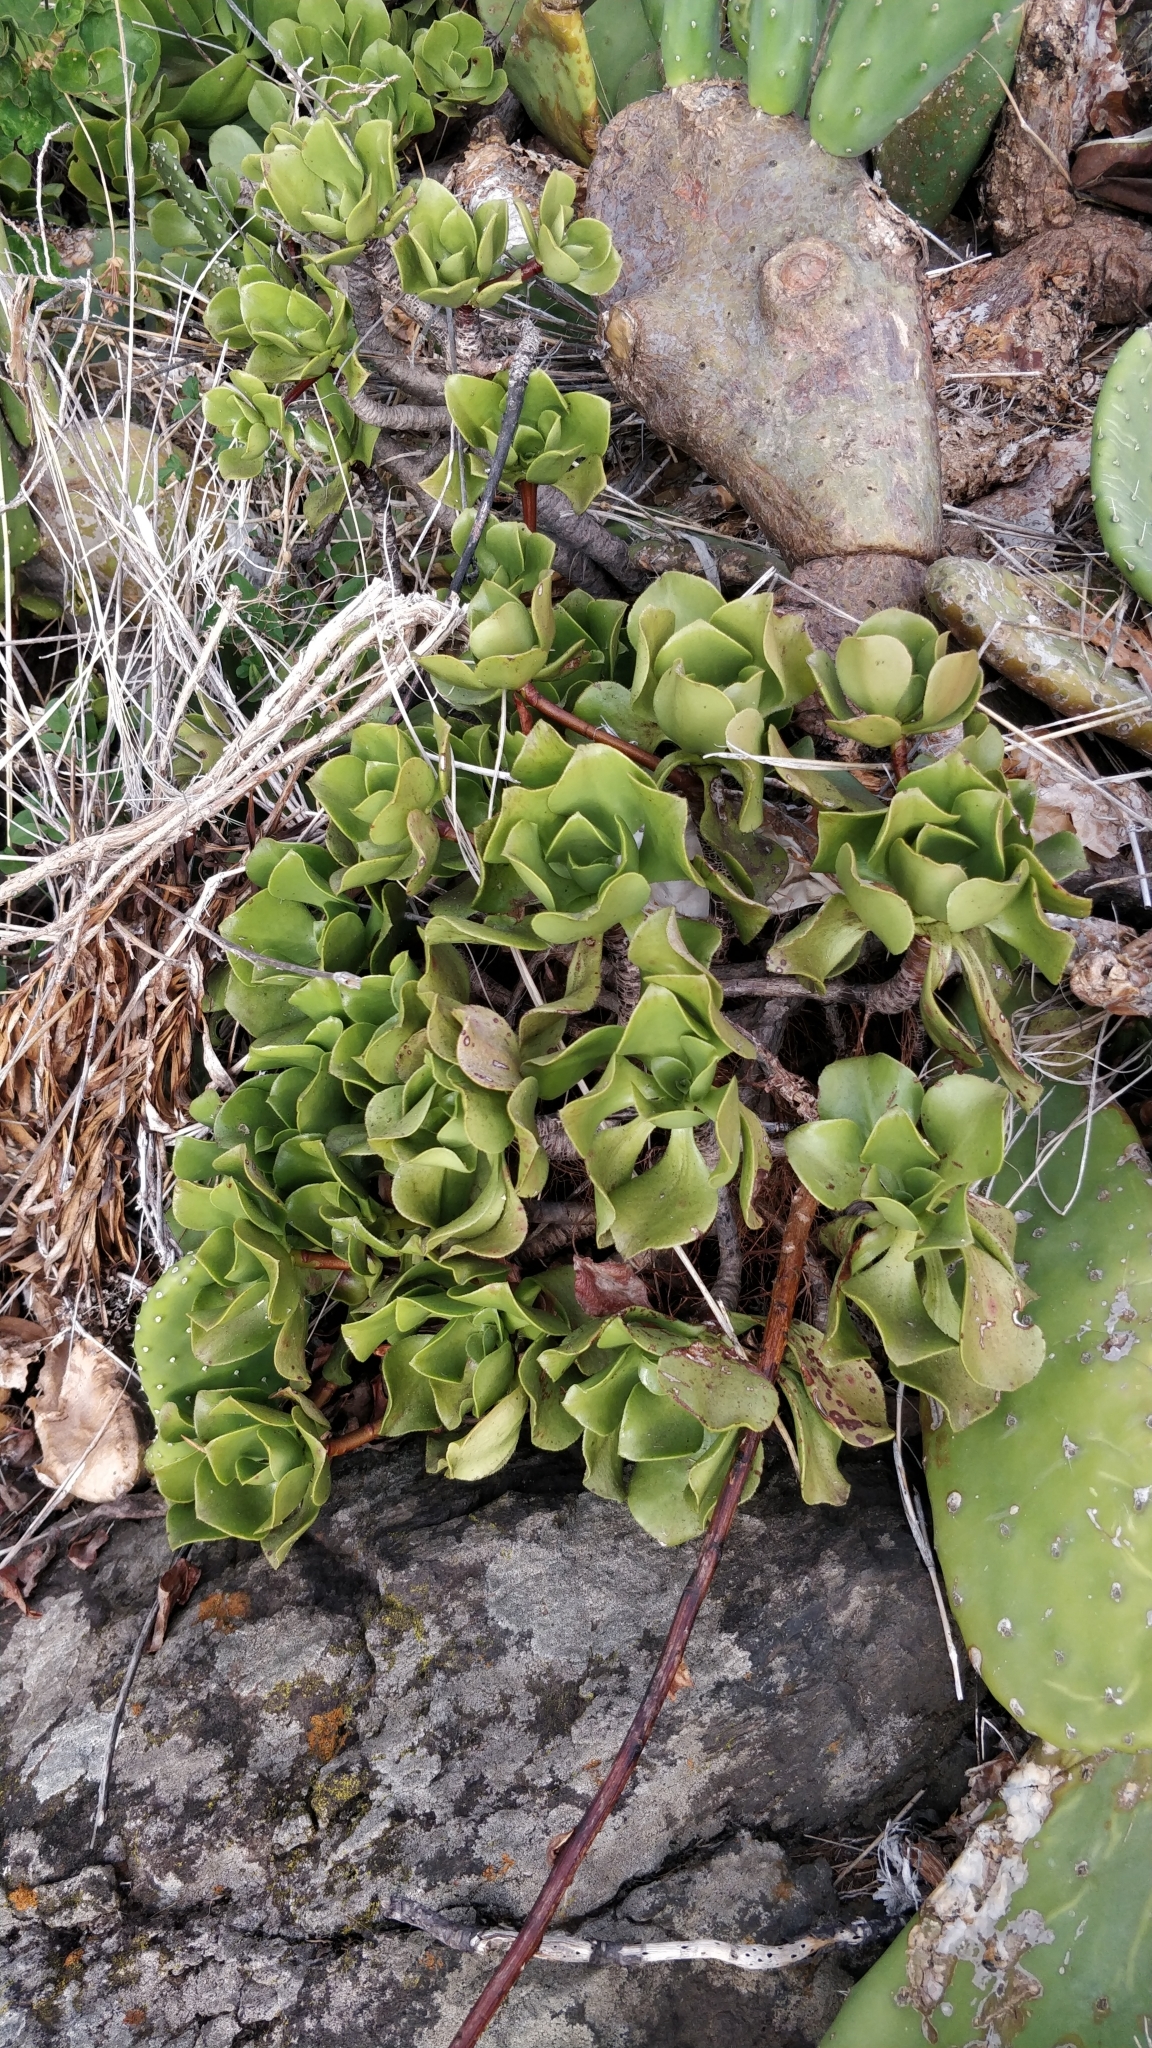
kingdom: Plantae
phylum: Tracheophyta
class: Magnoliopsida
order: Saxifragales
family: Crassulaceae
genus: Aeonium
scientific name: Aeonium glutinosum
